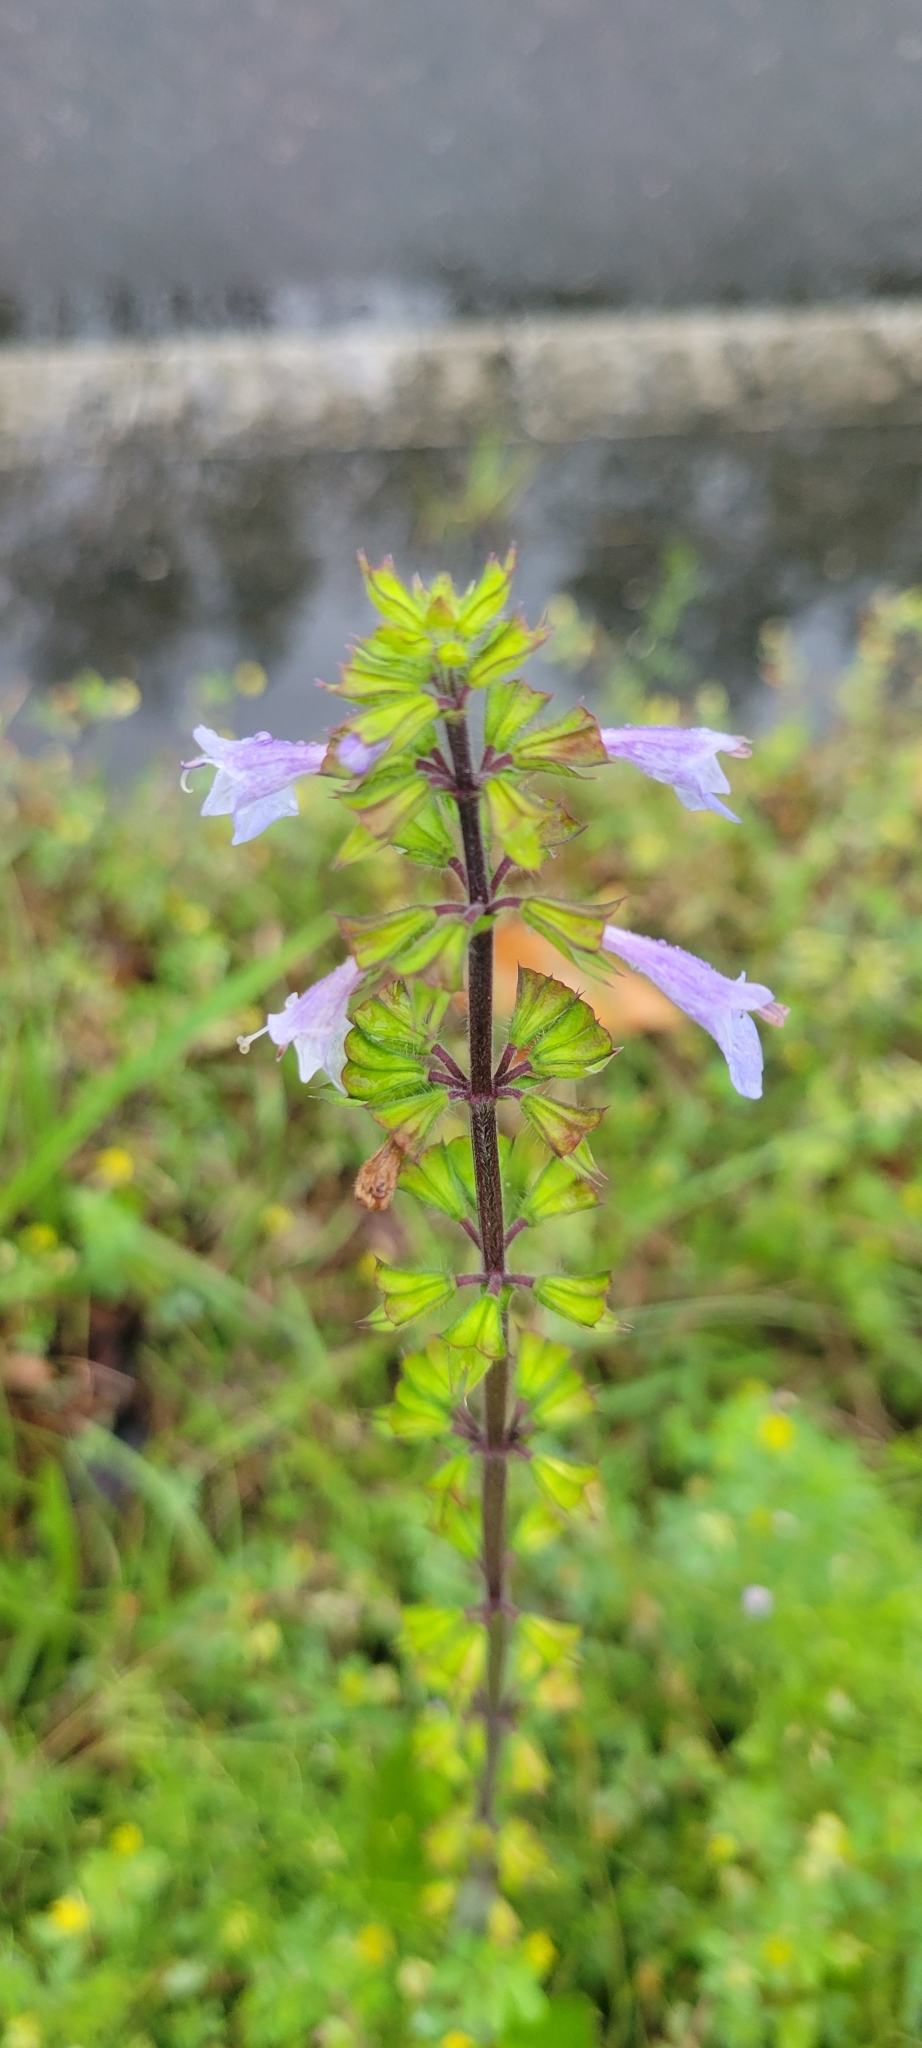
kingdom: Plantae
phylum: Tracheophyta
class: Magnoliopsida
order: Lamiales
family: Lamiaceae
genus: Salvia
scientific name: Salvia lyrata
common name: Cancerweed
